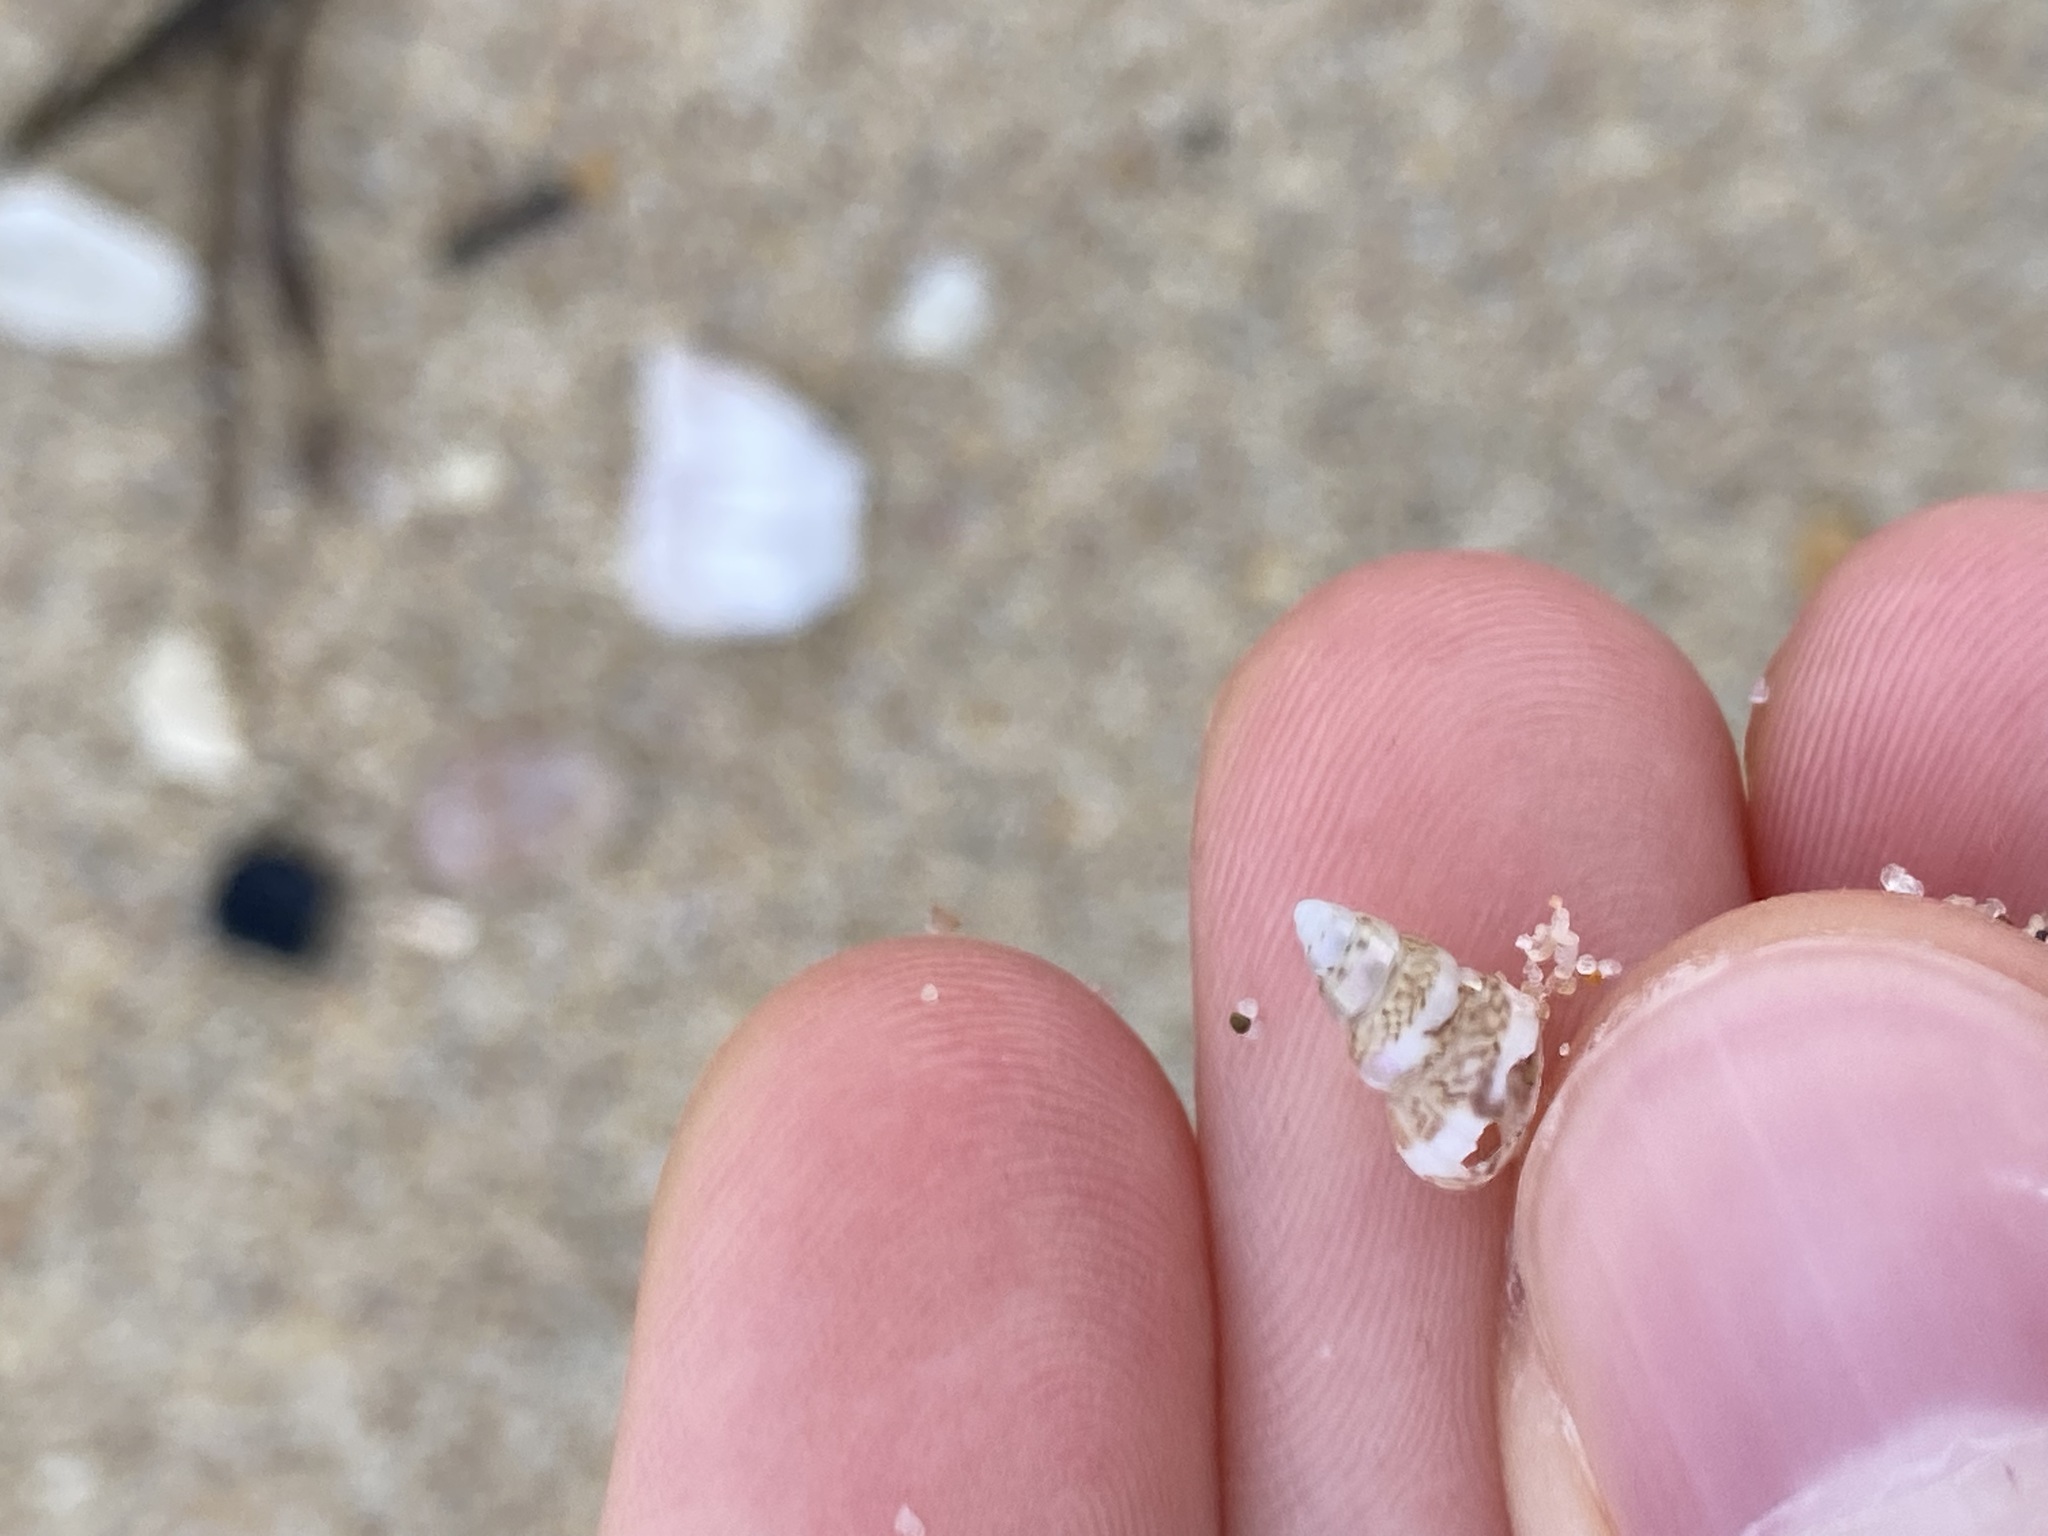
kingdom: Animalia
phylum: Mollusca
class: Gastropoda
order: Trochida
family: Trochidae
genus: Leiopyrga
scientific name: Leiopyrga lineolaris
